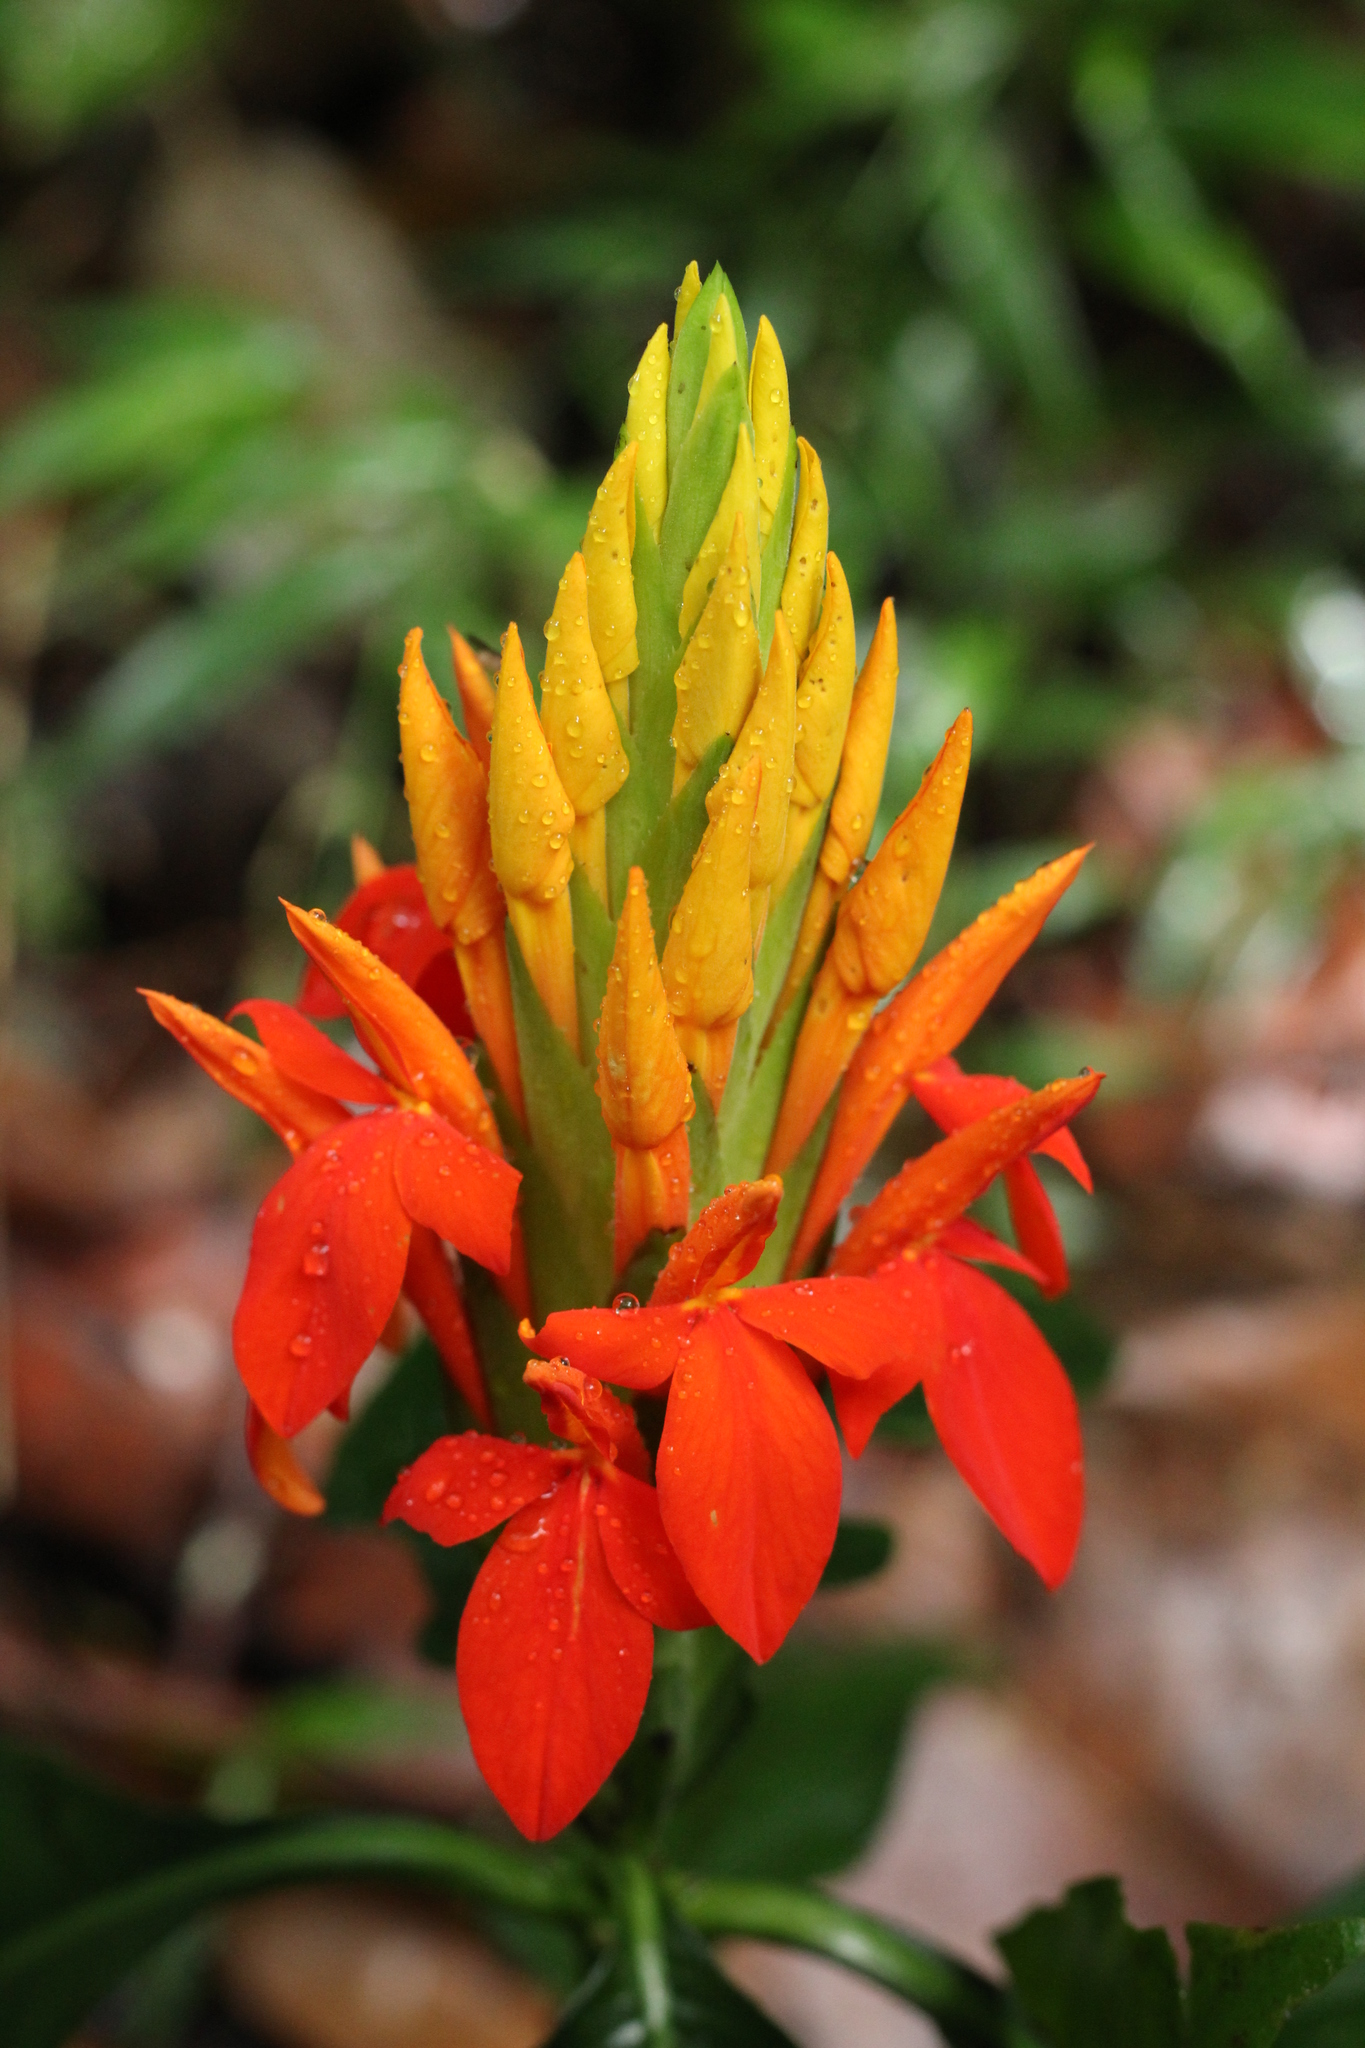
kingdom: Plantae
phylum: Tracheophyta
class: Magnoliopsida
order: Lamiales
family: Acanthaceae
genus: Aphelandra
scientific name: Aphelandra aurantiaca
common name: Fiery spike
